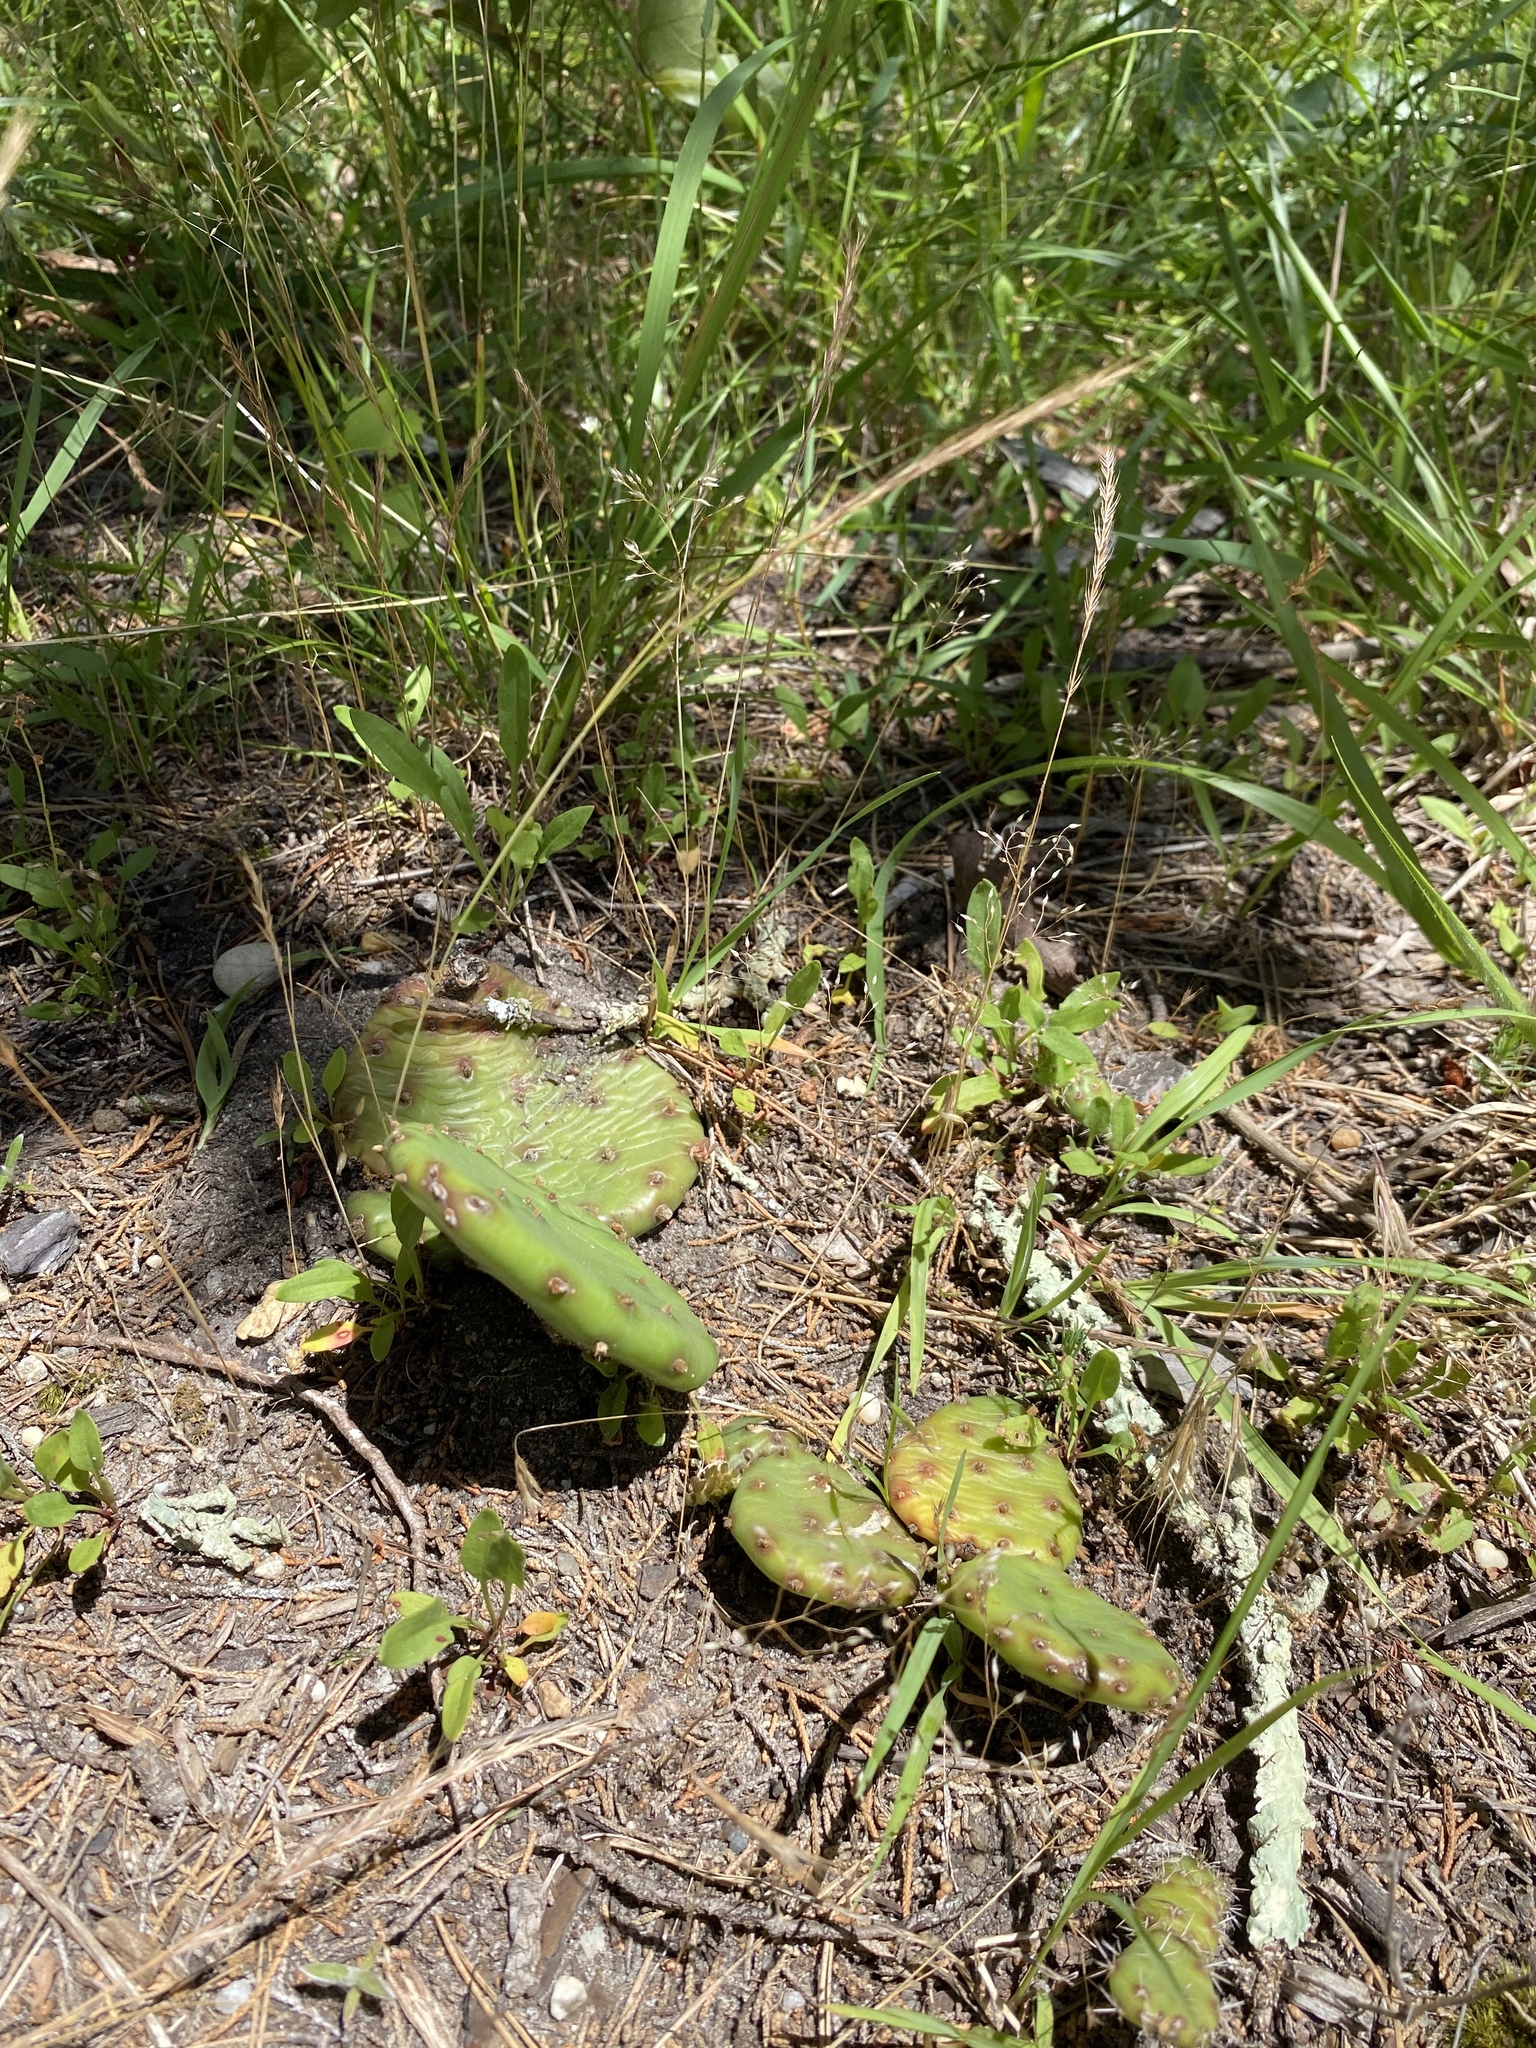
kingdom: Plantae
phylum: Tracheophyta
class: Magnoliopsida
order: Caryophyllales
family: Cactaceae
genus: Opuntia
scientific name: Opuntia humifusa
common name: Eastern prickly-pear
